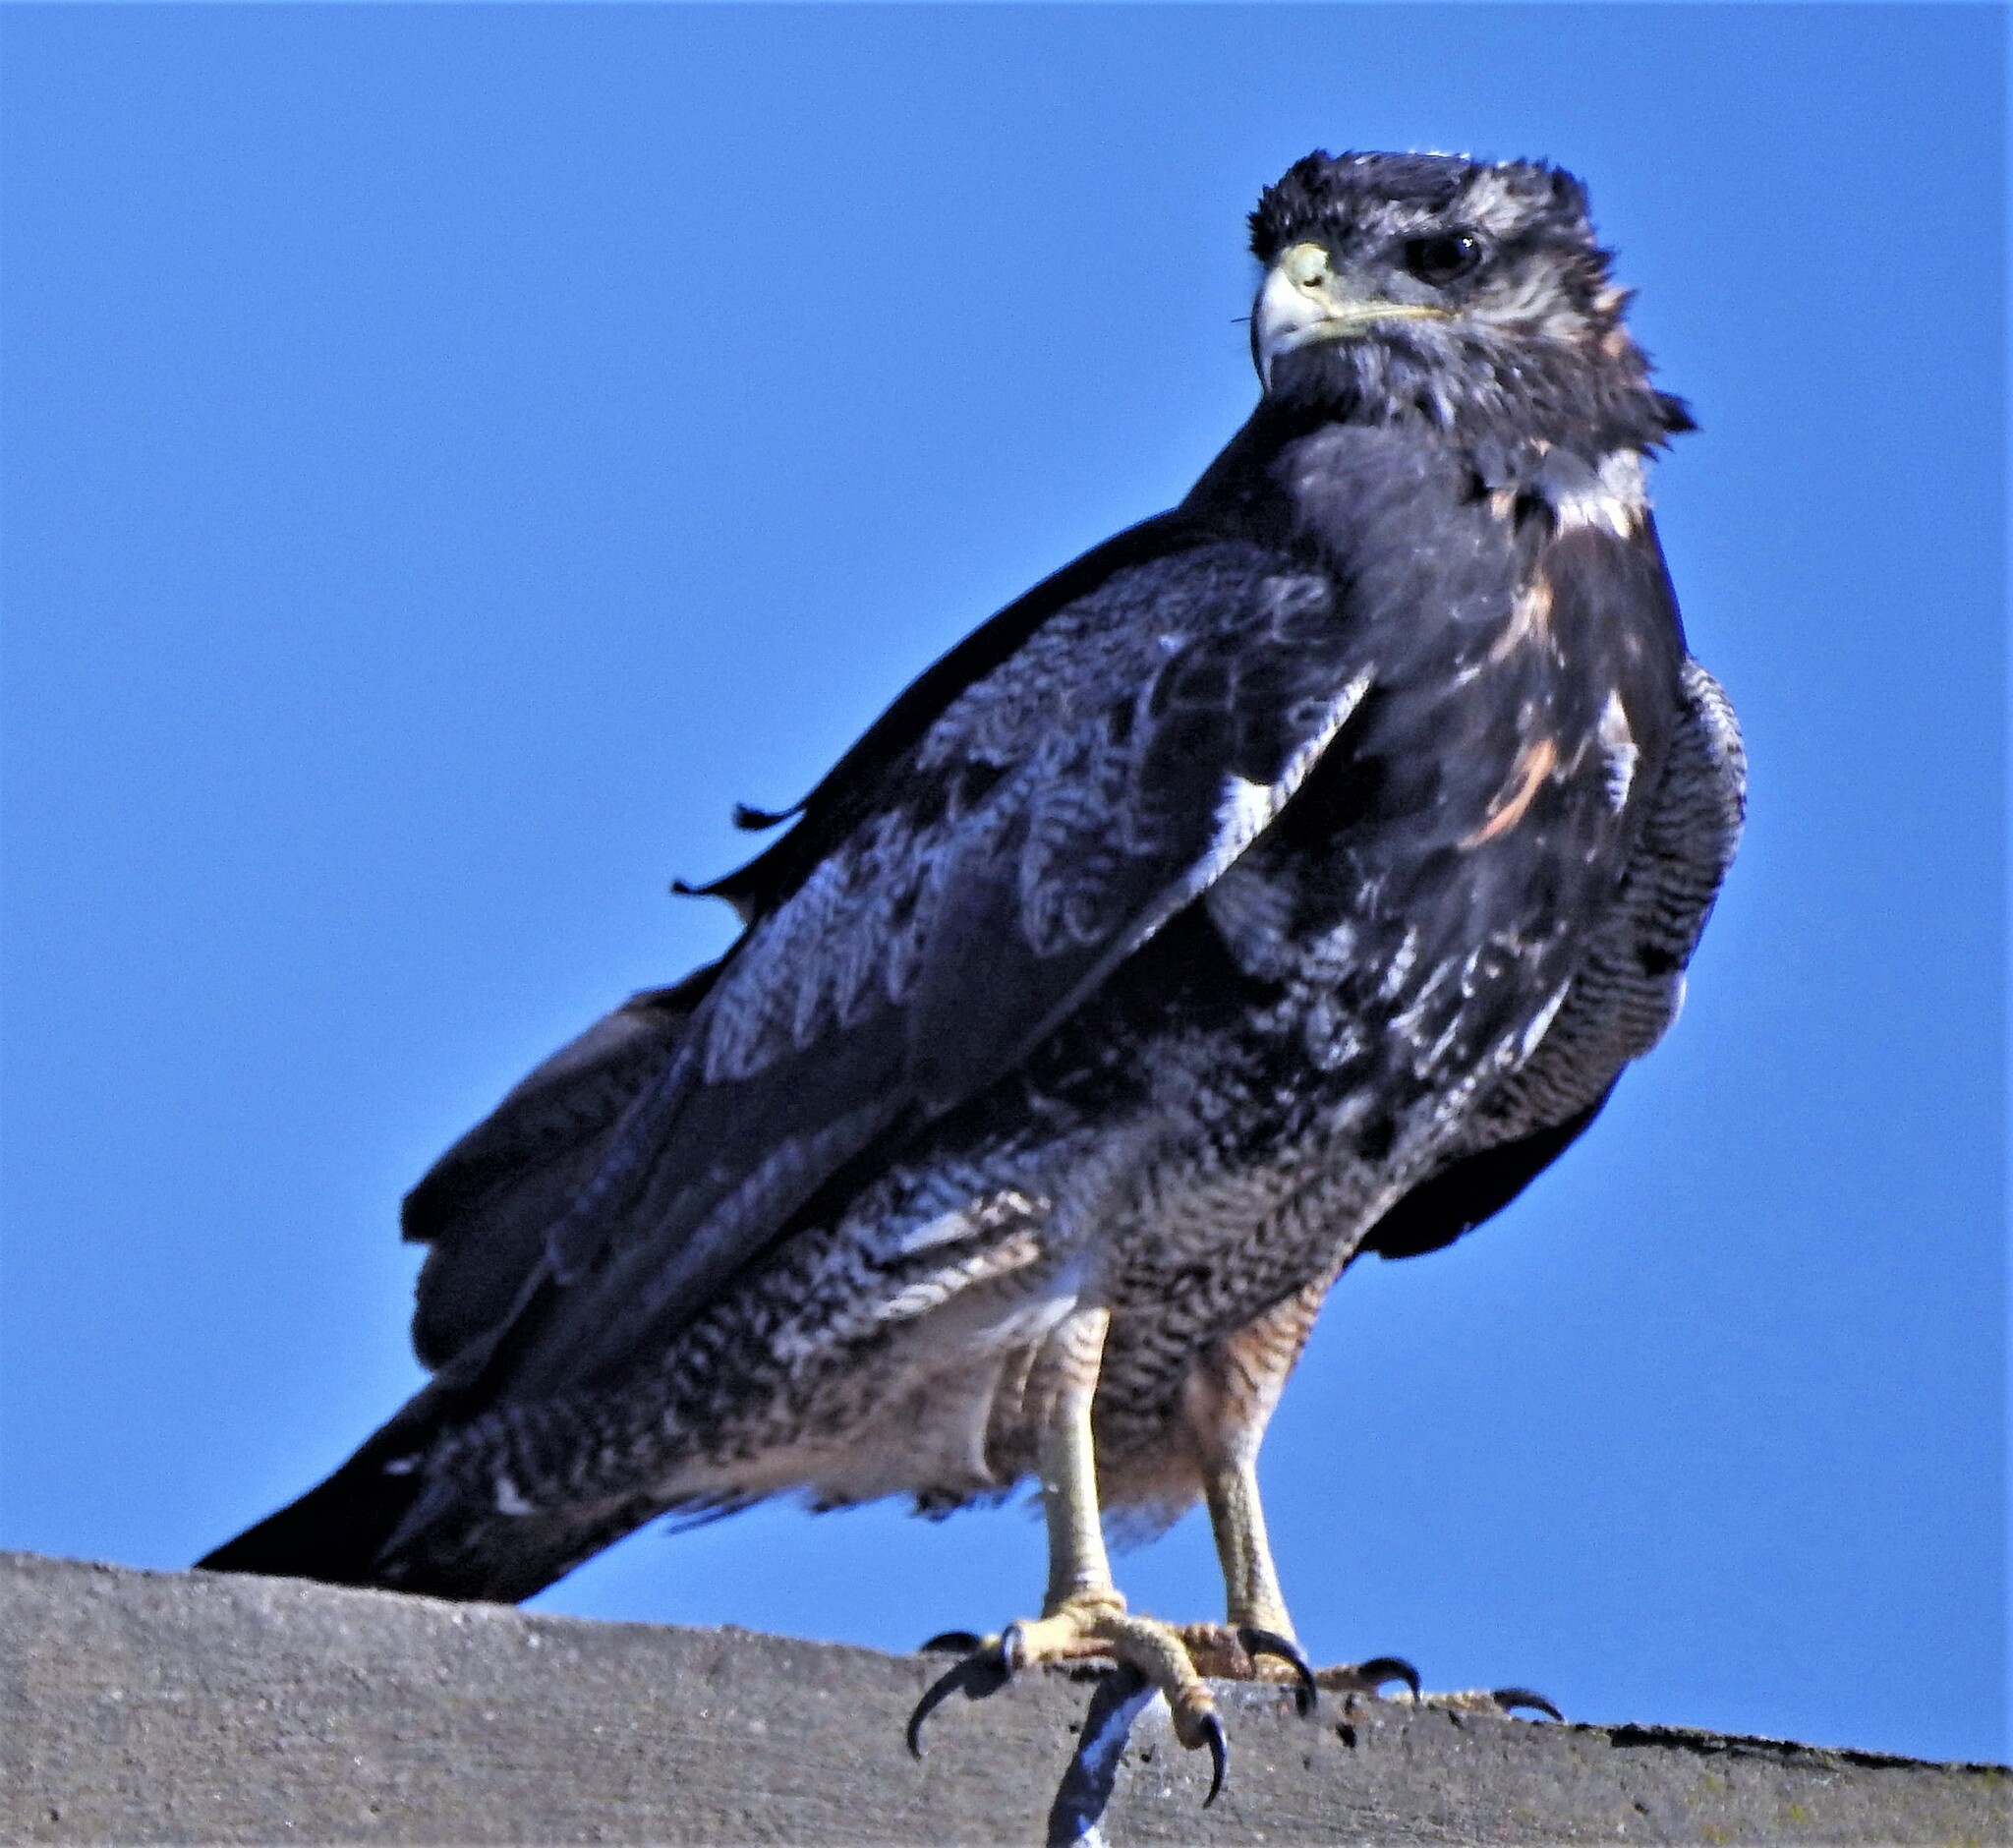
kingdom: Animalia
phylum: Chordata
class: Aves
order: Accipitriformes
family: Accipitridae
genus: Geranoaetus
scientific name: Geranoaetus melanoleucus
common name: Black-chested buzzard-eagle
